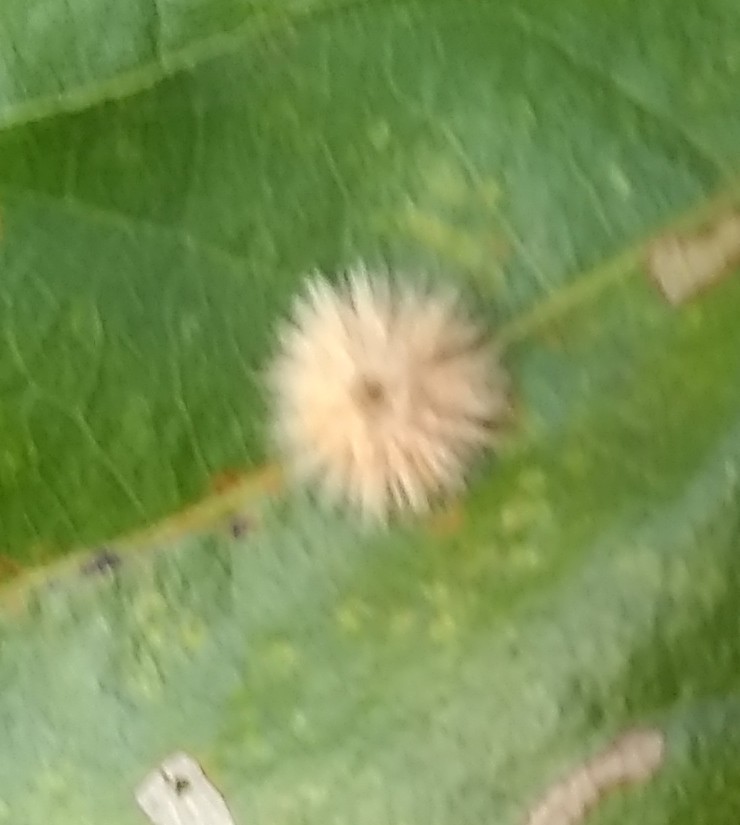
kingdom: Animalia
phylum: Arthropoda
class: Insecta
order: Hymenoptera
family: Cynipidae
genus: Callirhytis
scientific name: Callirhytis
